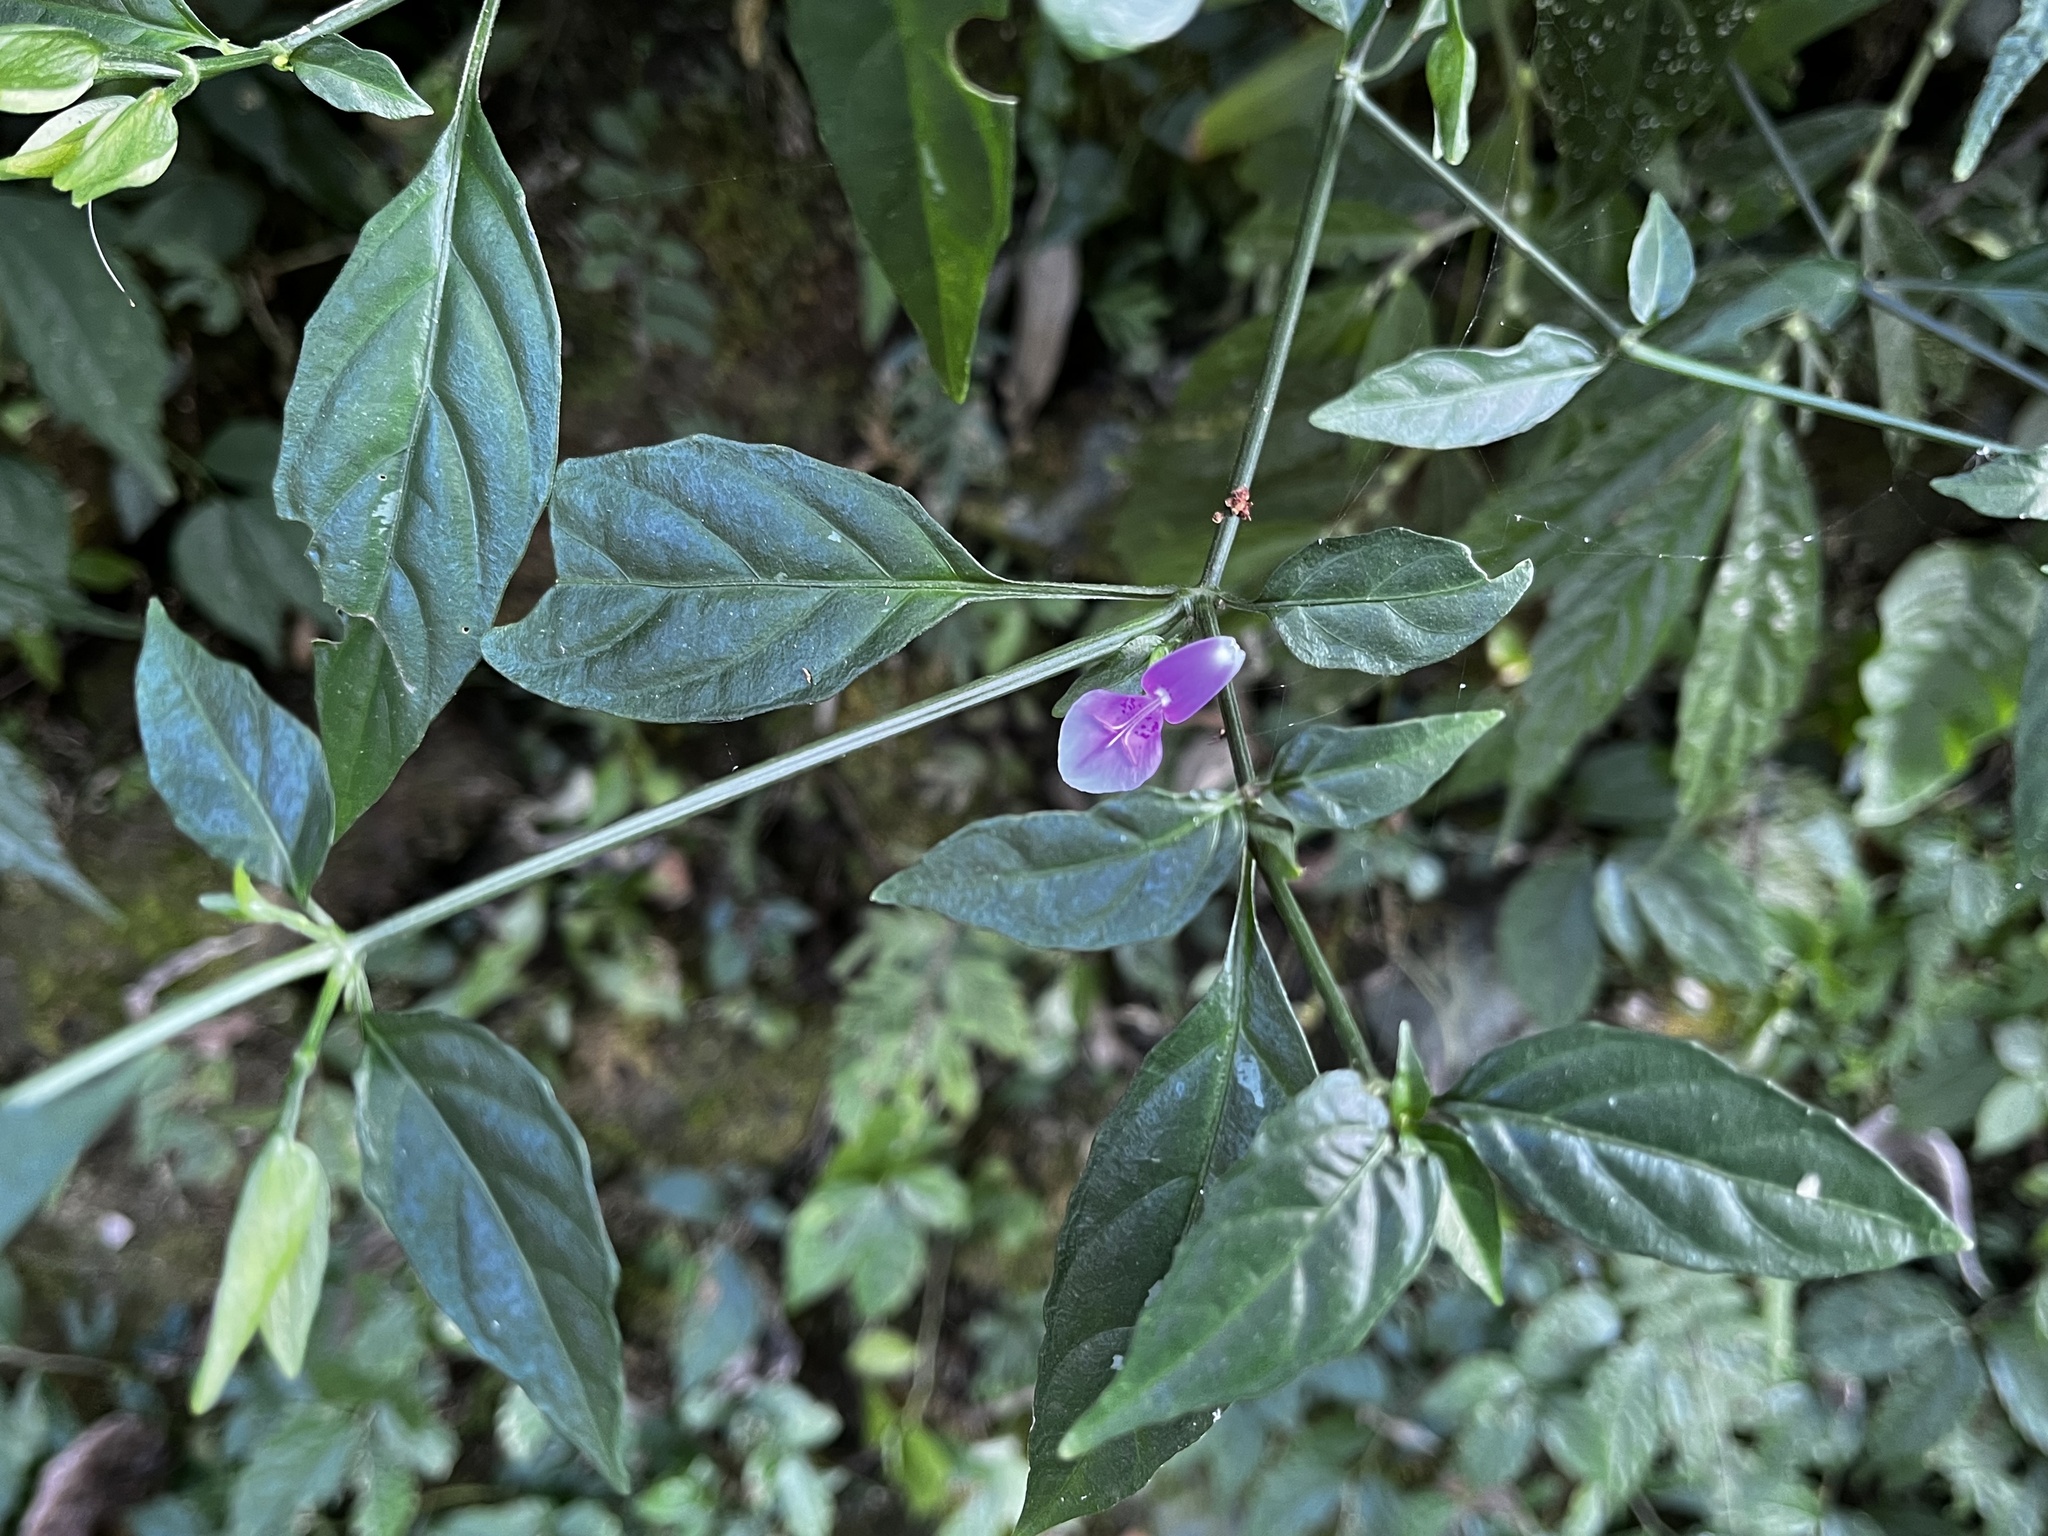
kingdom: Plantae
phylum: Tracheophyta
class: Magnoliopsida
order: Lamiales
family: Acanthaceae
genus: Dicliptera
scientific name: Dicliptera japonica
